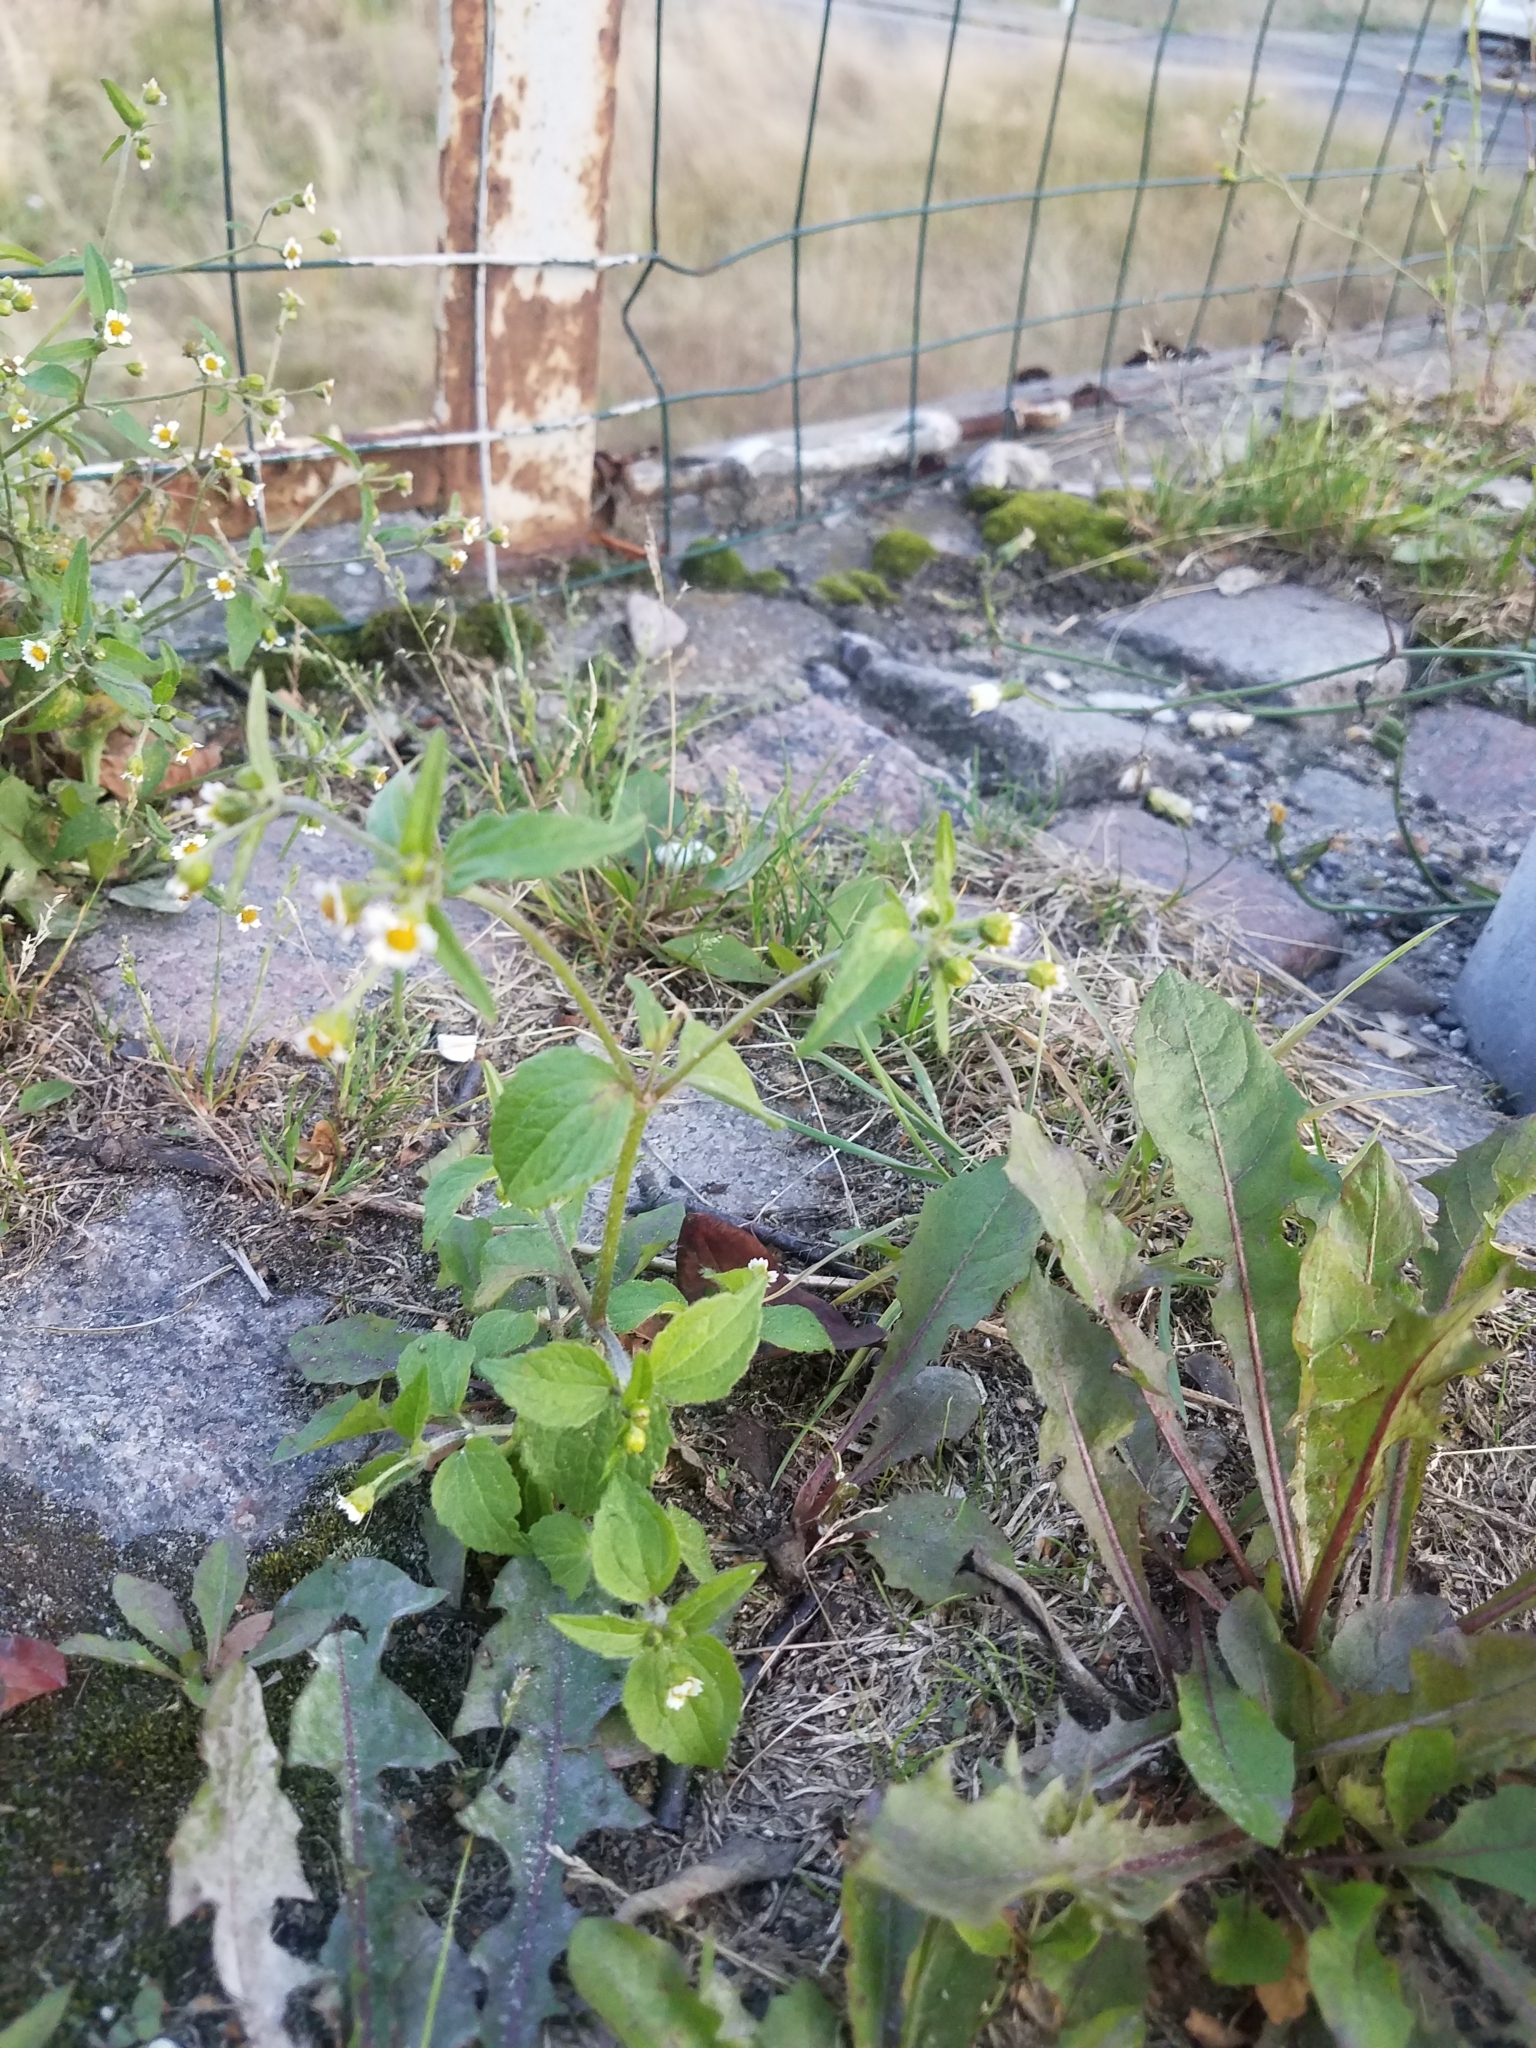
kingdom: Plantae
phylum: Tracheophyta
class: Magnoliopsida
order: Asterales
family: Asteraceae
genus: Galinsoga
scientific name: Galinsoga quadriradiata
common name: Shaggy soldier
